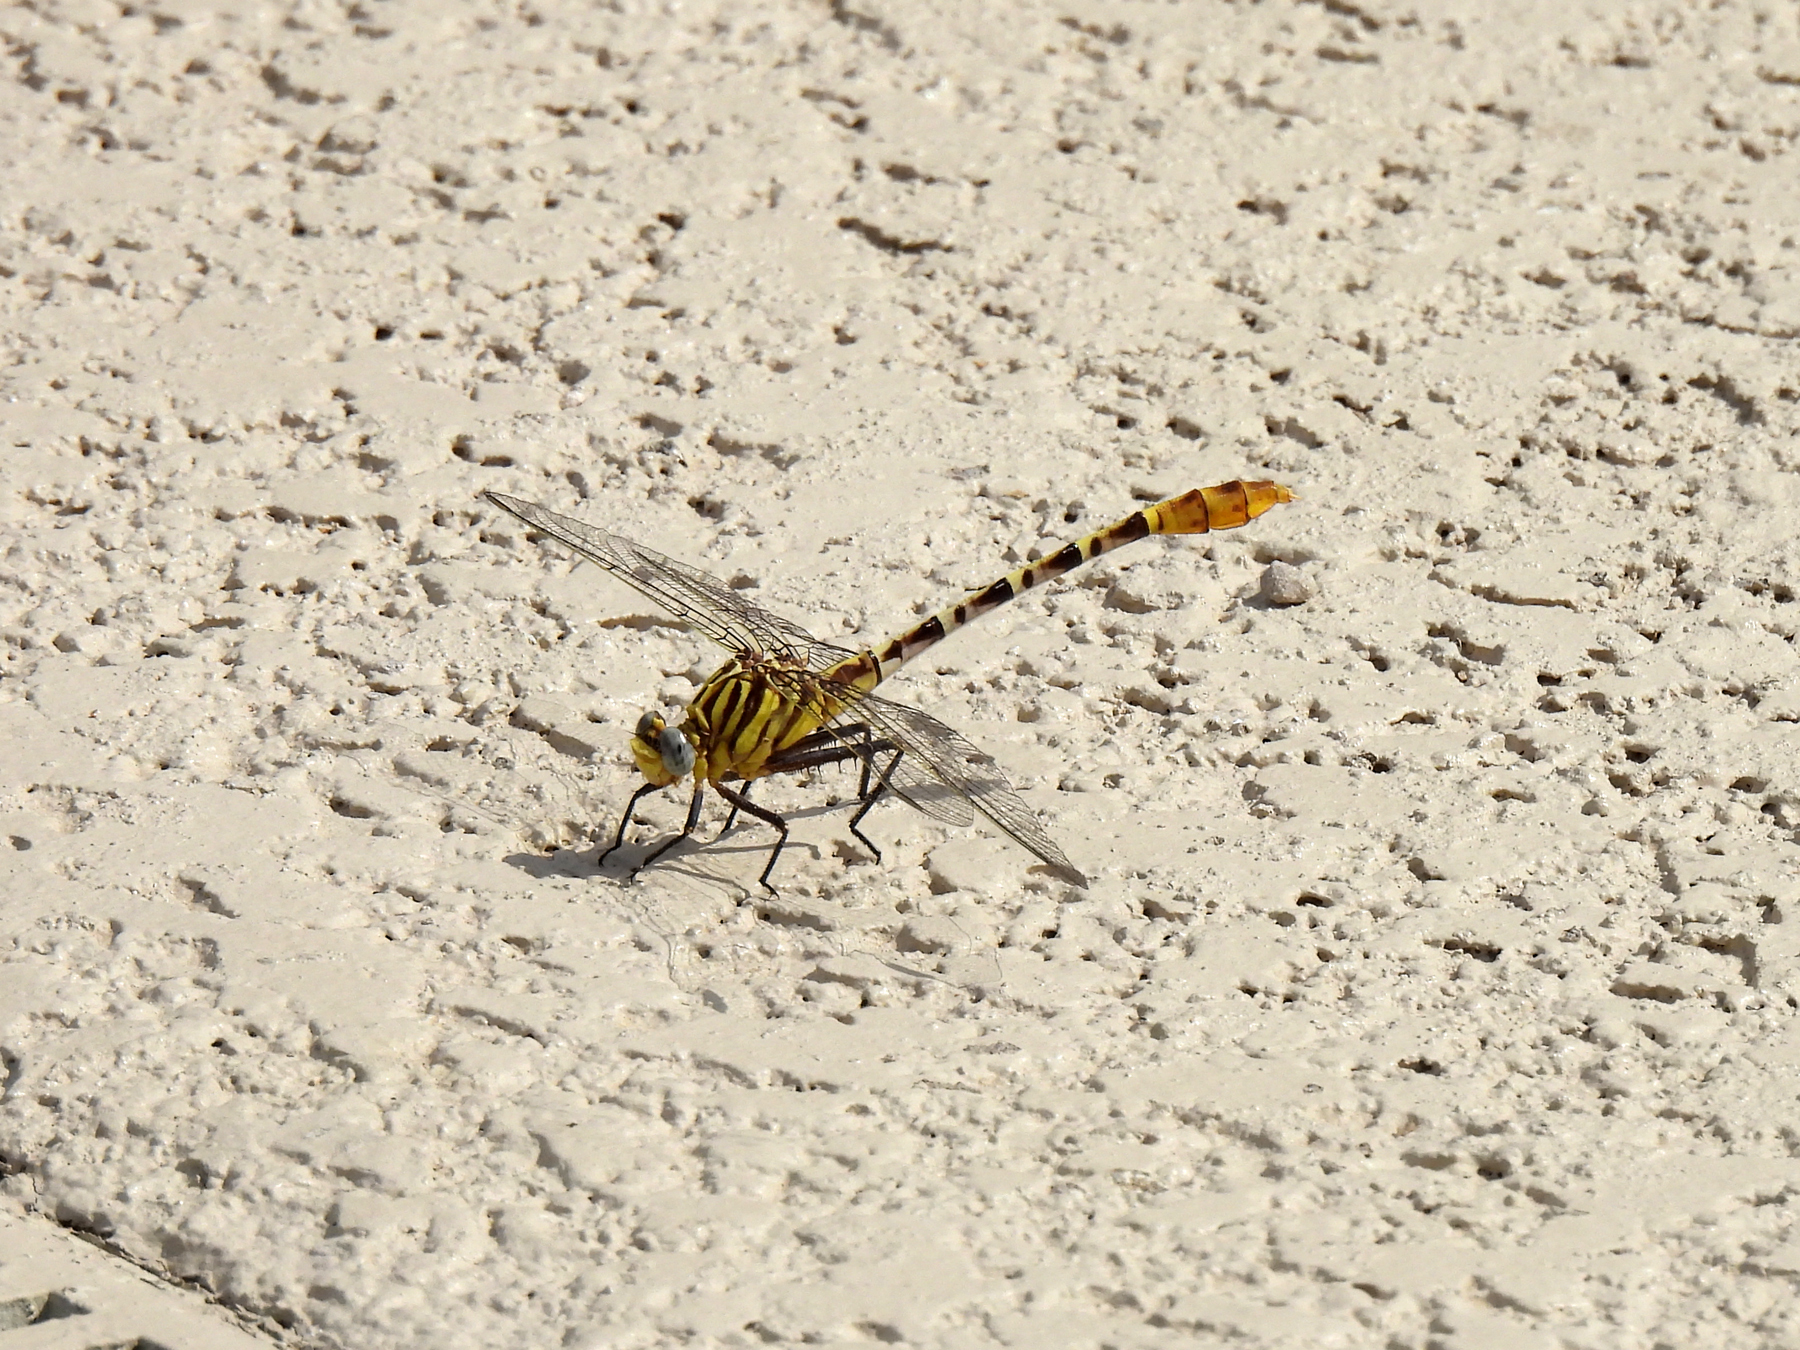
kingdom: Animalia
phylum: Arthropoda
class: Insecta
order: Odonata
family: Gomphidae
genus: Dromogomphus
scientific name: Dromogomphus spoliatus
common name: Flag-tailed spinyleg
